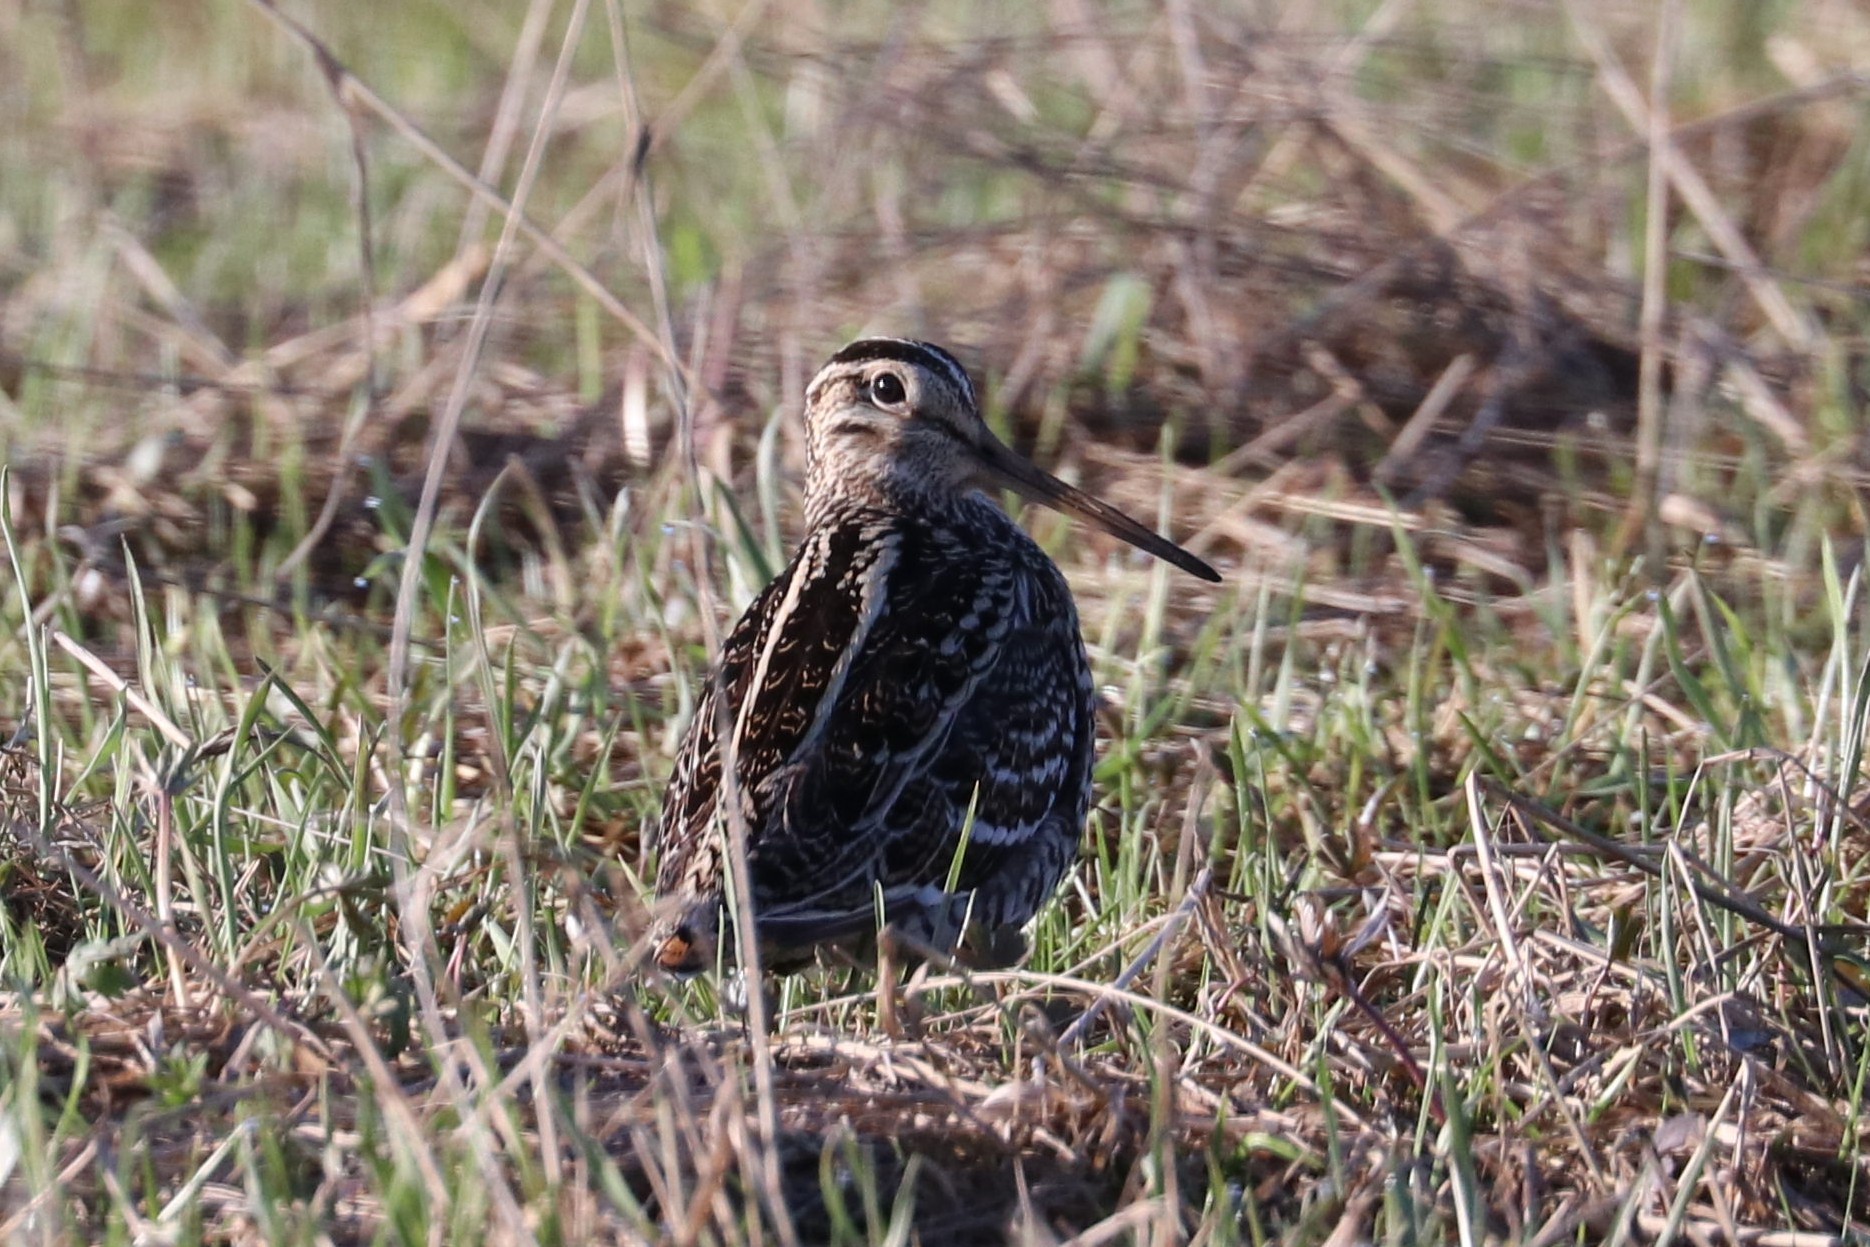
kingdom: Animalia
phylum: Chordata
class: Aves
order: Charadriiformes
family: Scolopacidae
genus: Gallinago
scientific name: Gallinago media
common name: Great snipe
